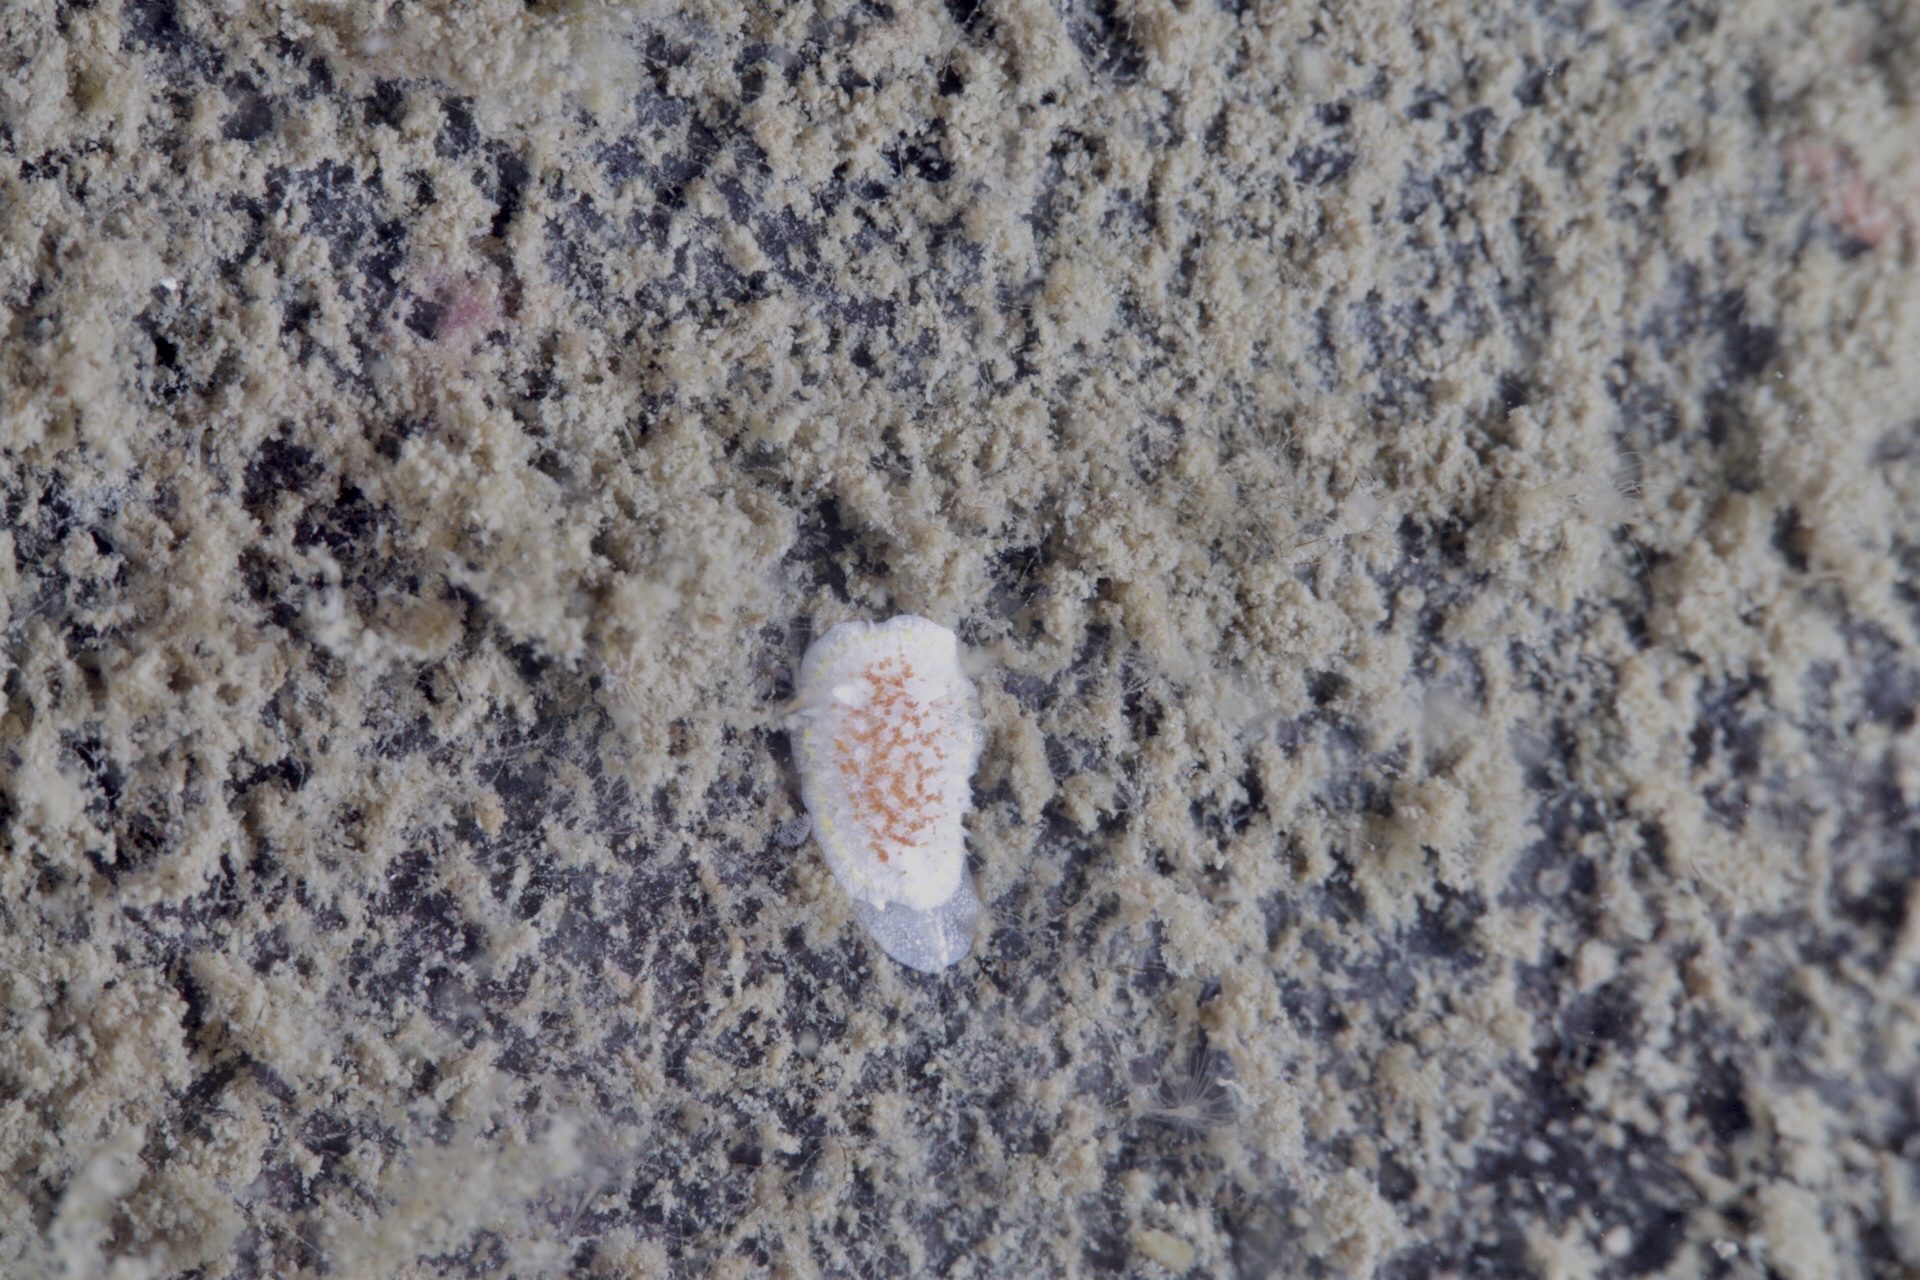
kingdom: Animalia
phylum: Mollusca
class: Gastropoda
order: Nudibranchia
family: Calycidorididae
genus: Diaphorodoris
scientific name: Diaphorodoris luteocincta
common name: Fried egg nudibranch
